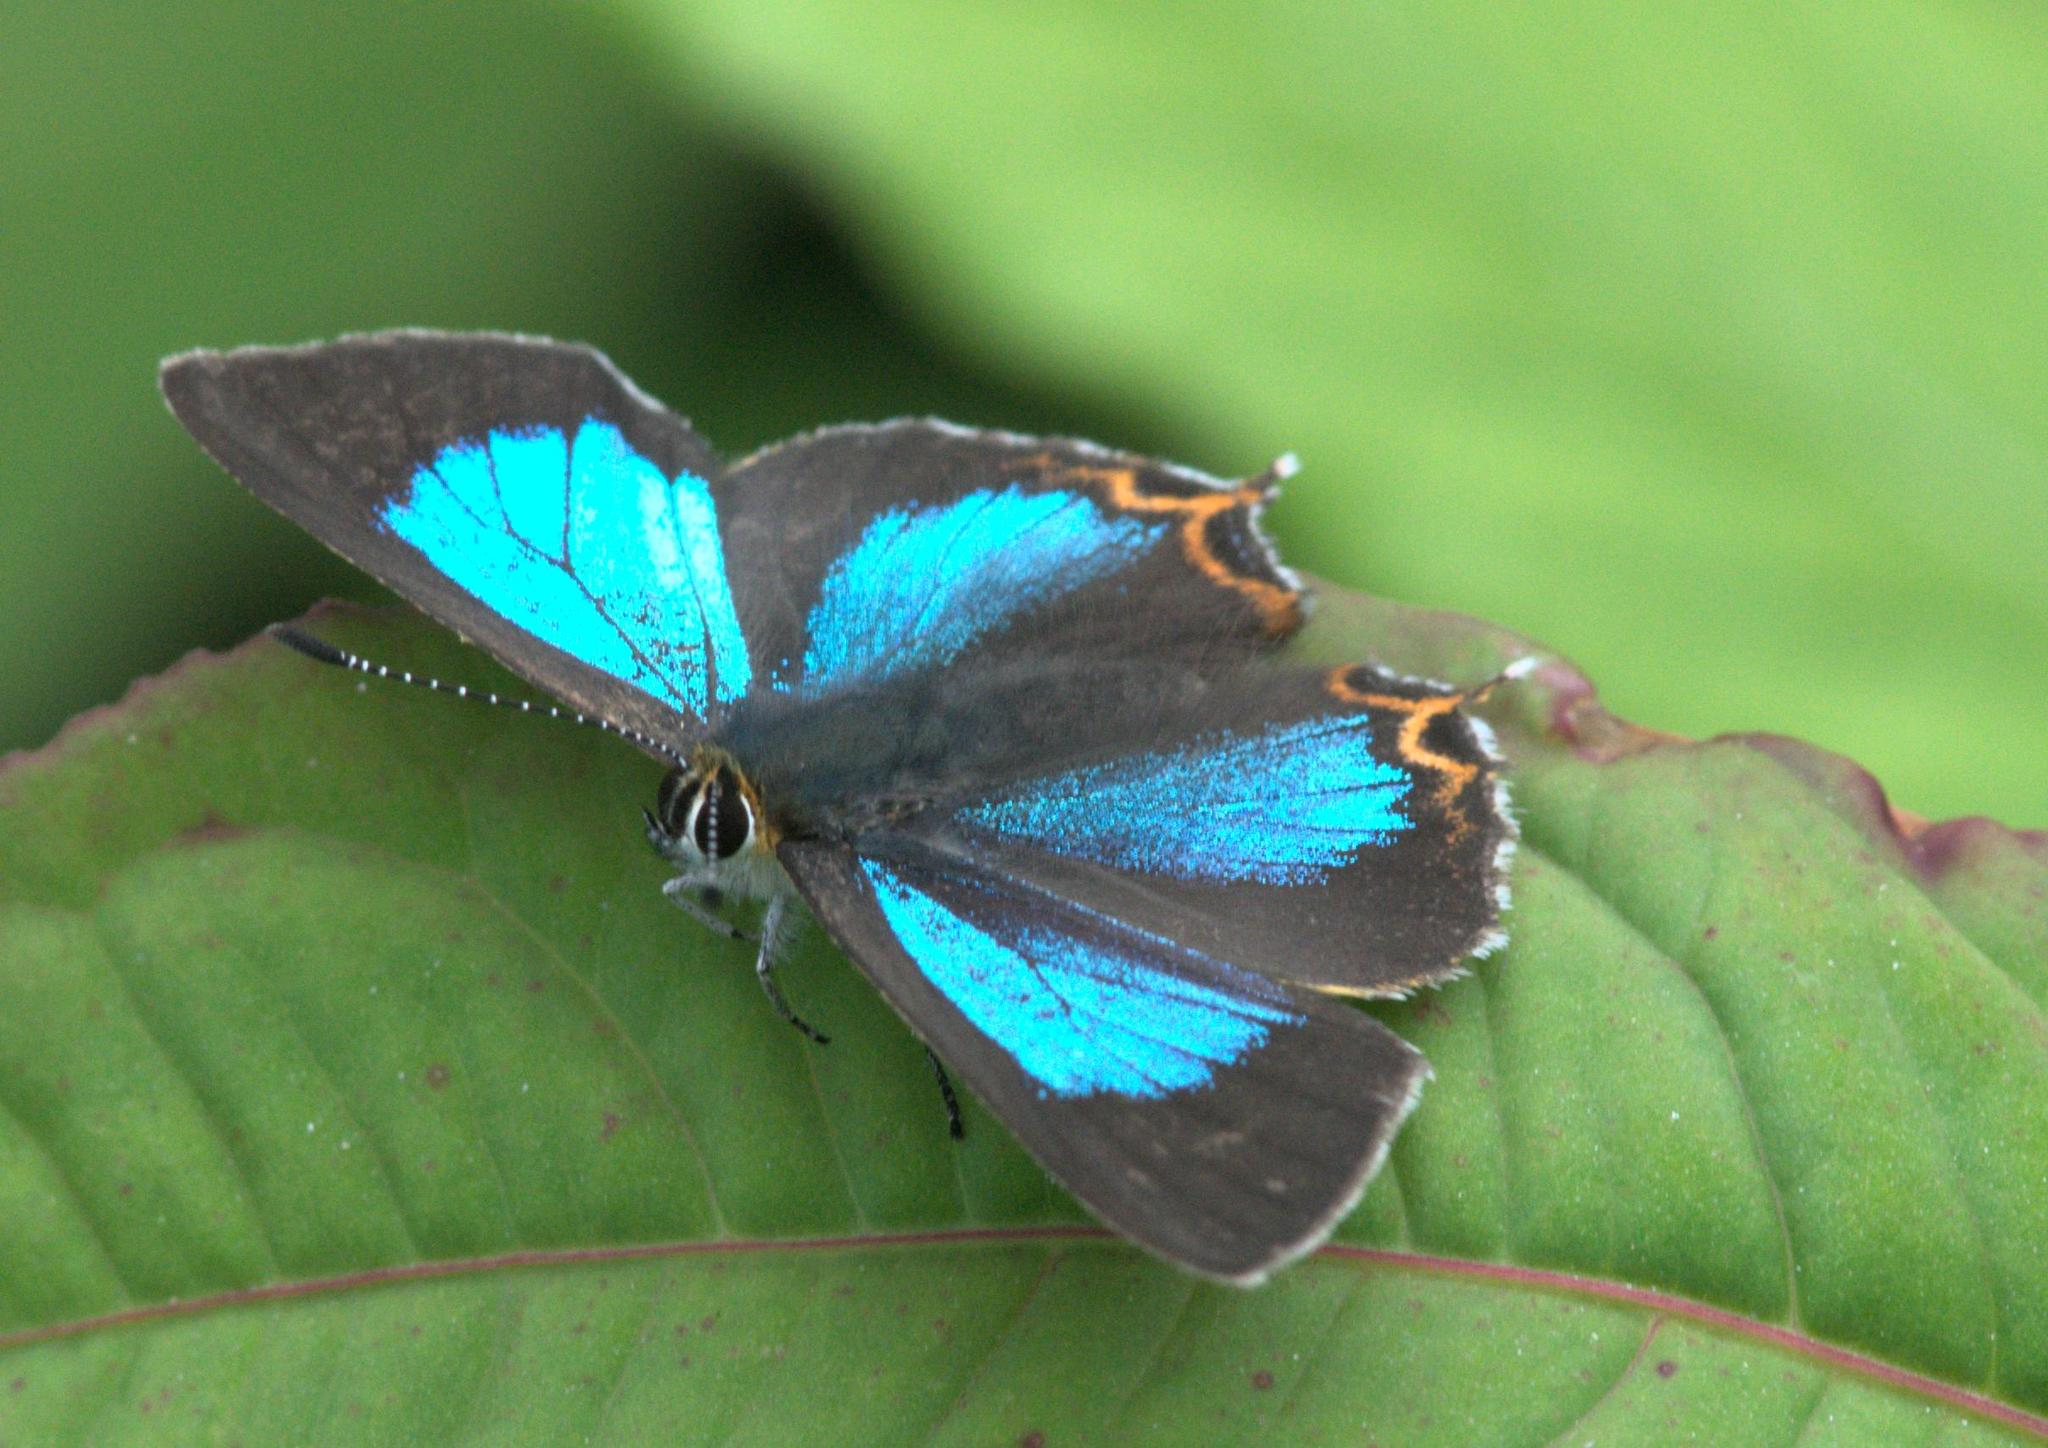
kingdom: Animalia
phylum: Arthropoda
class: Insecta
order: Lepidoptera
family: Lycaenidae
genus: Heliophorus
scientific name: Heliophorus
